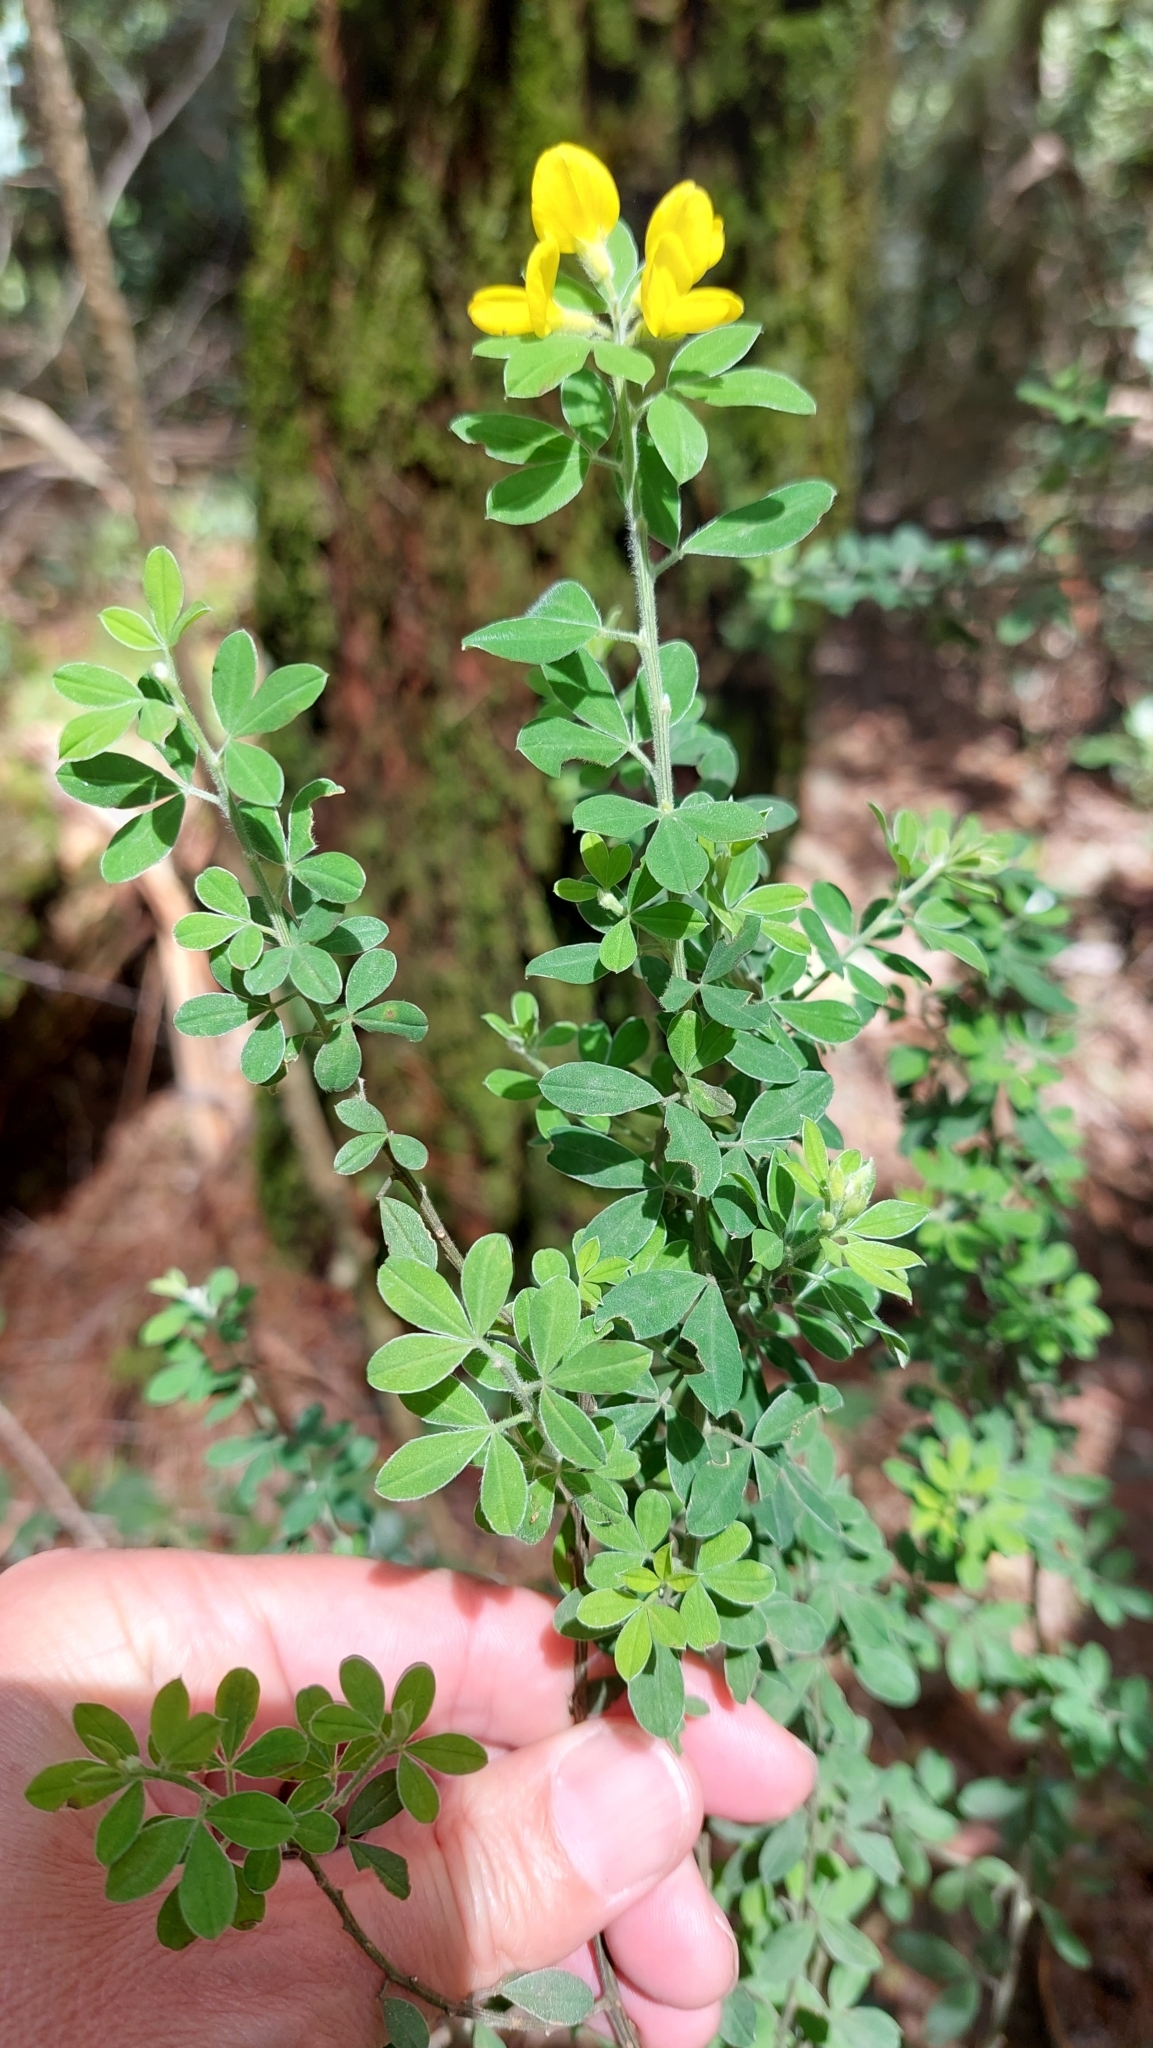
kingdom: Plantae
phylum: Tracheophyta
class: Magnoliopsida
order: Fabales
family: Fabaceae
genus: Genista
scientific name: Genista monspessulana
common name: Montpellier broom
